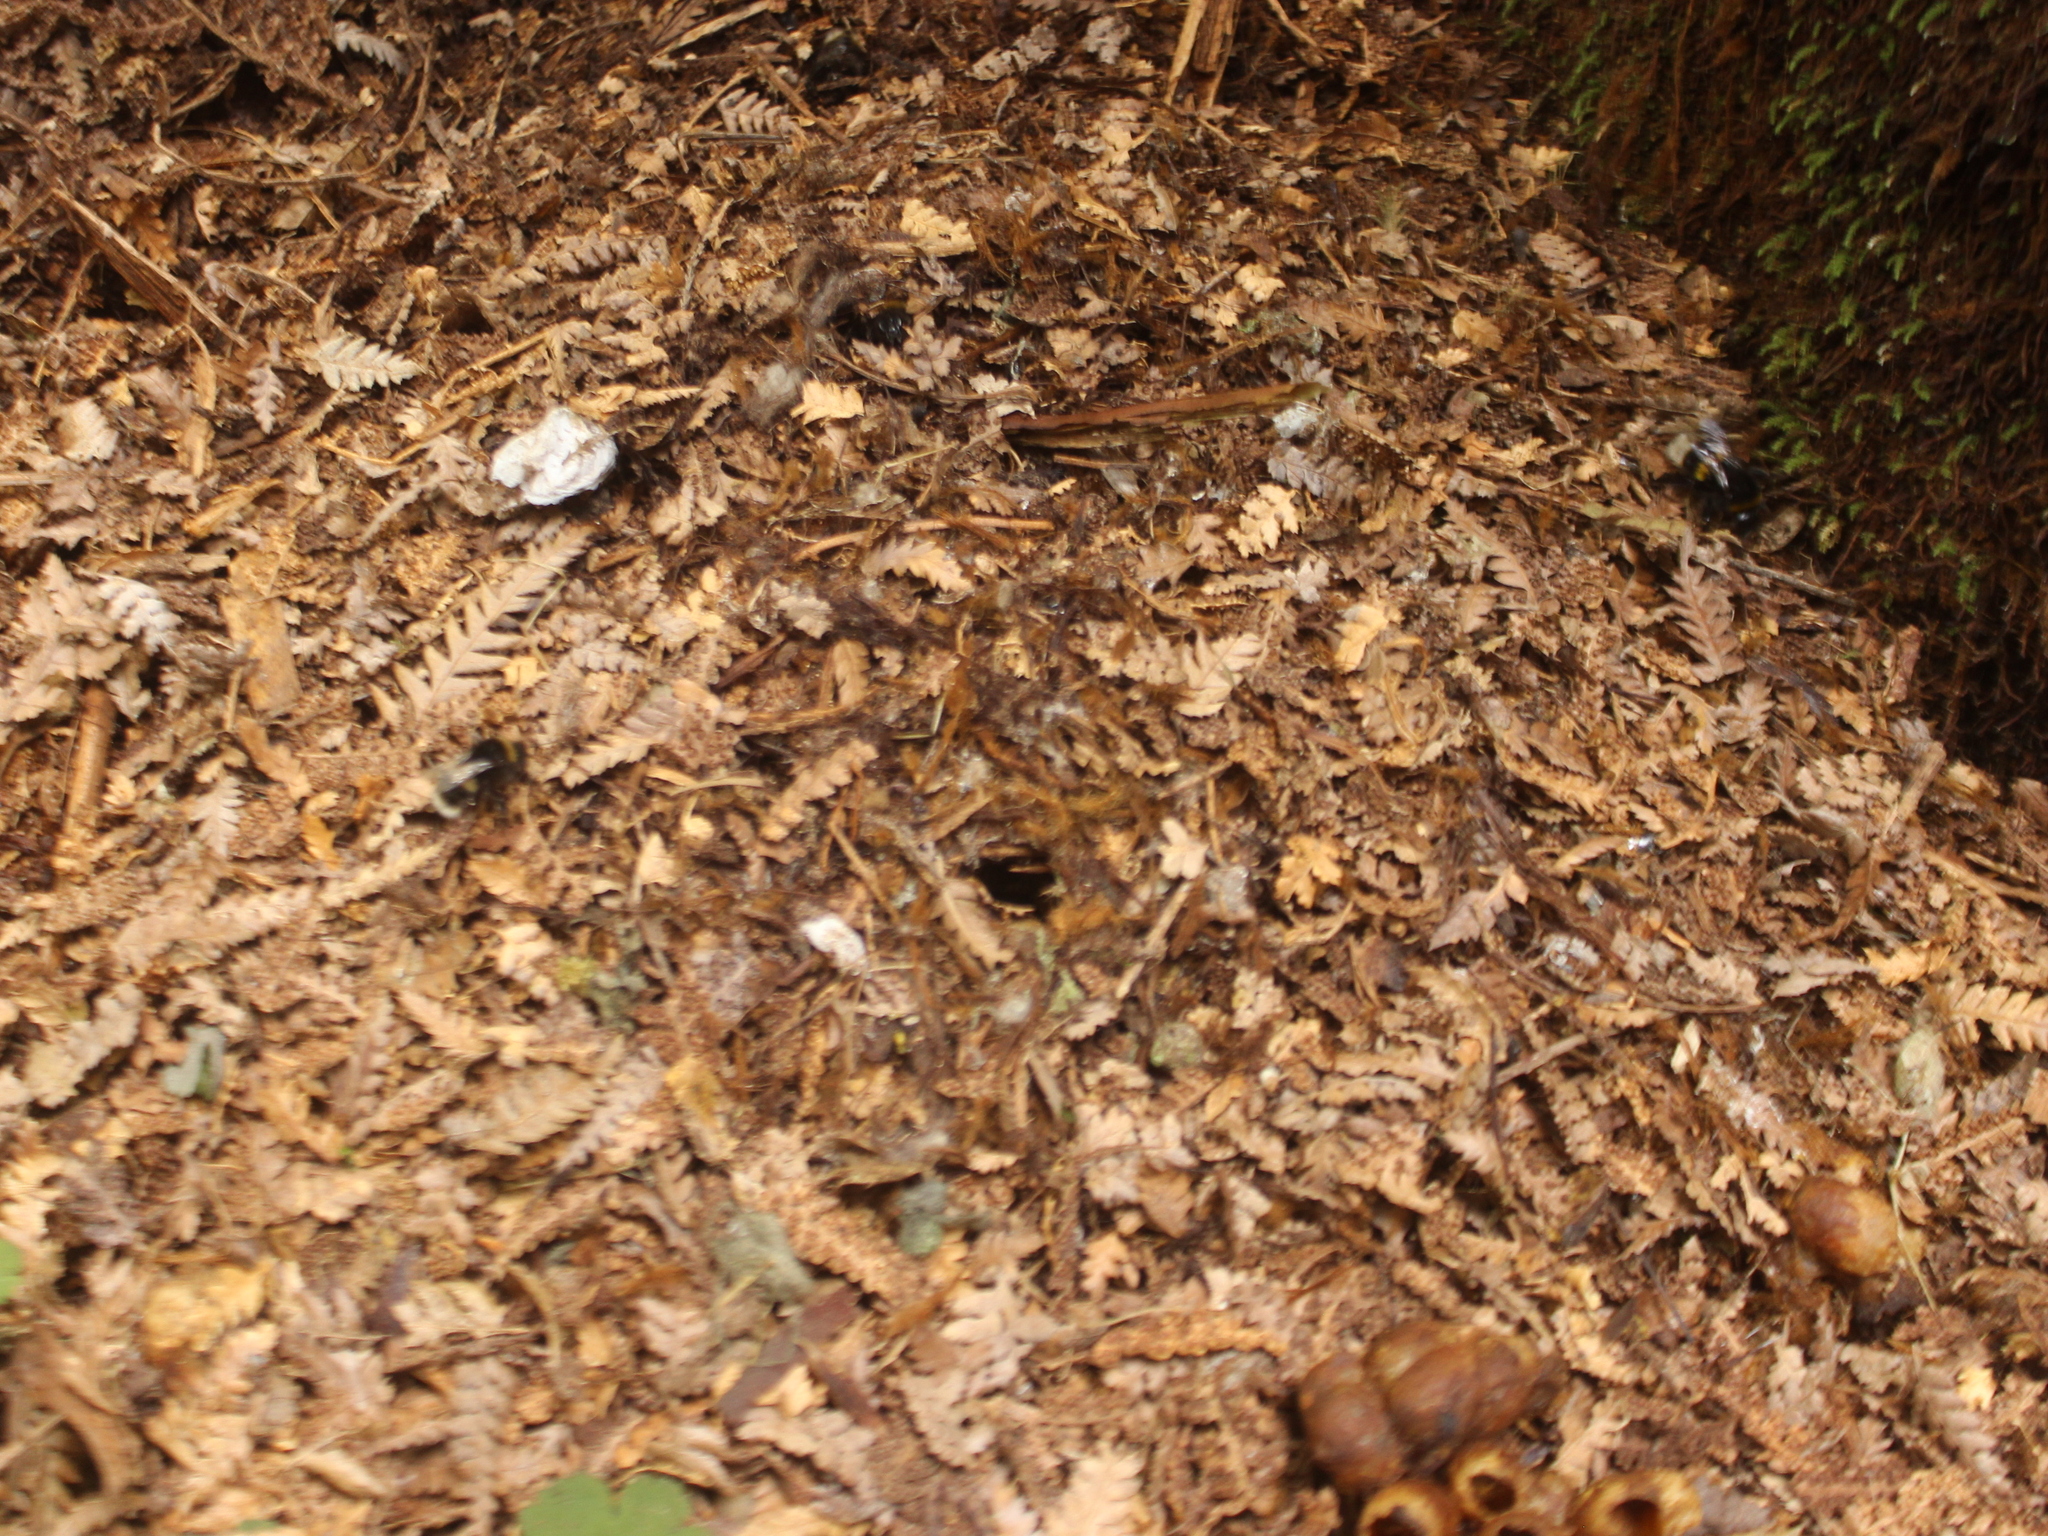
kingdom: Animalia
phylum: Arthropoda
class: Insecta
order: Hymenoptera
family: Apidae
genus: Bombus
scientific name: Bombus terrestris
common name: Buff-tailed bumblebee
